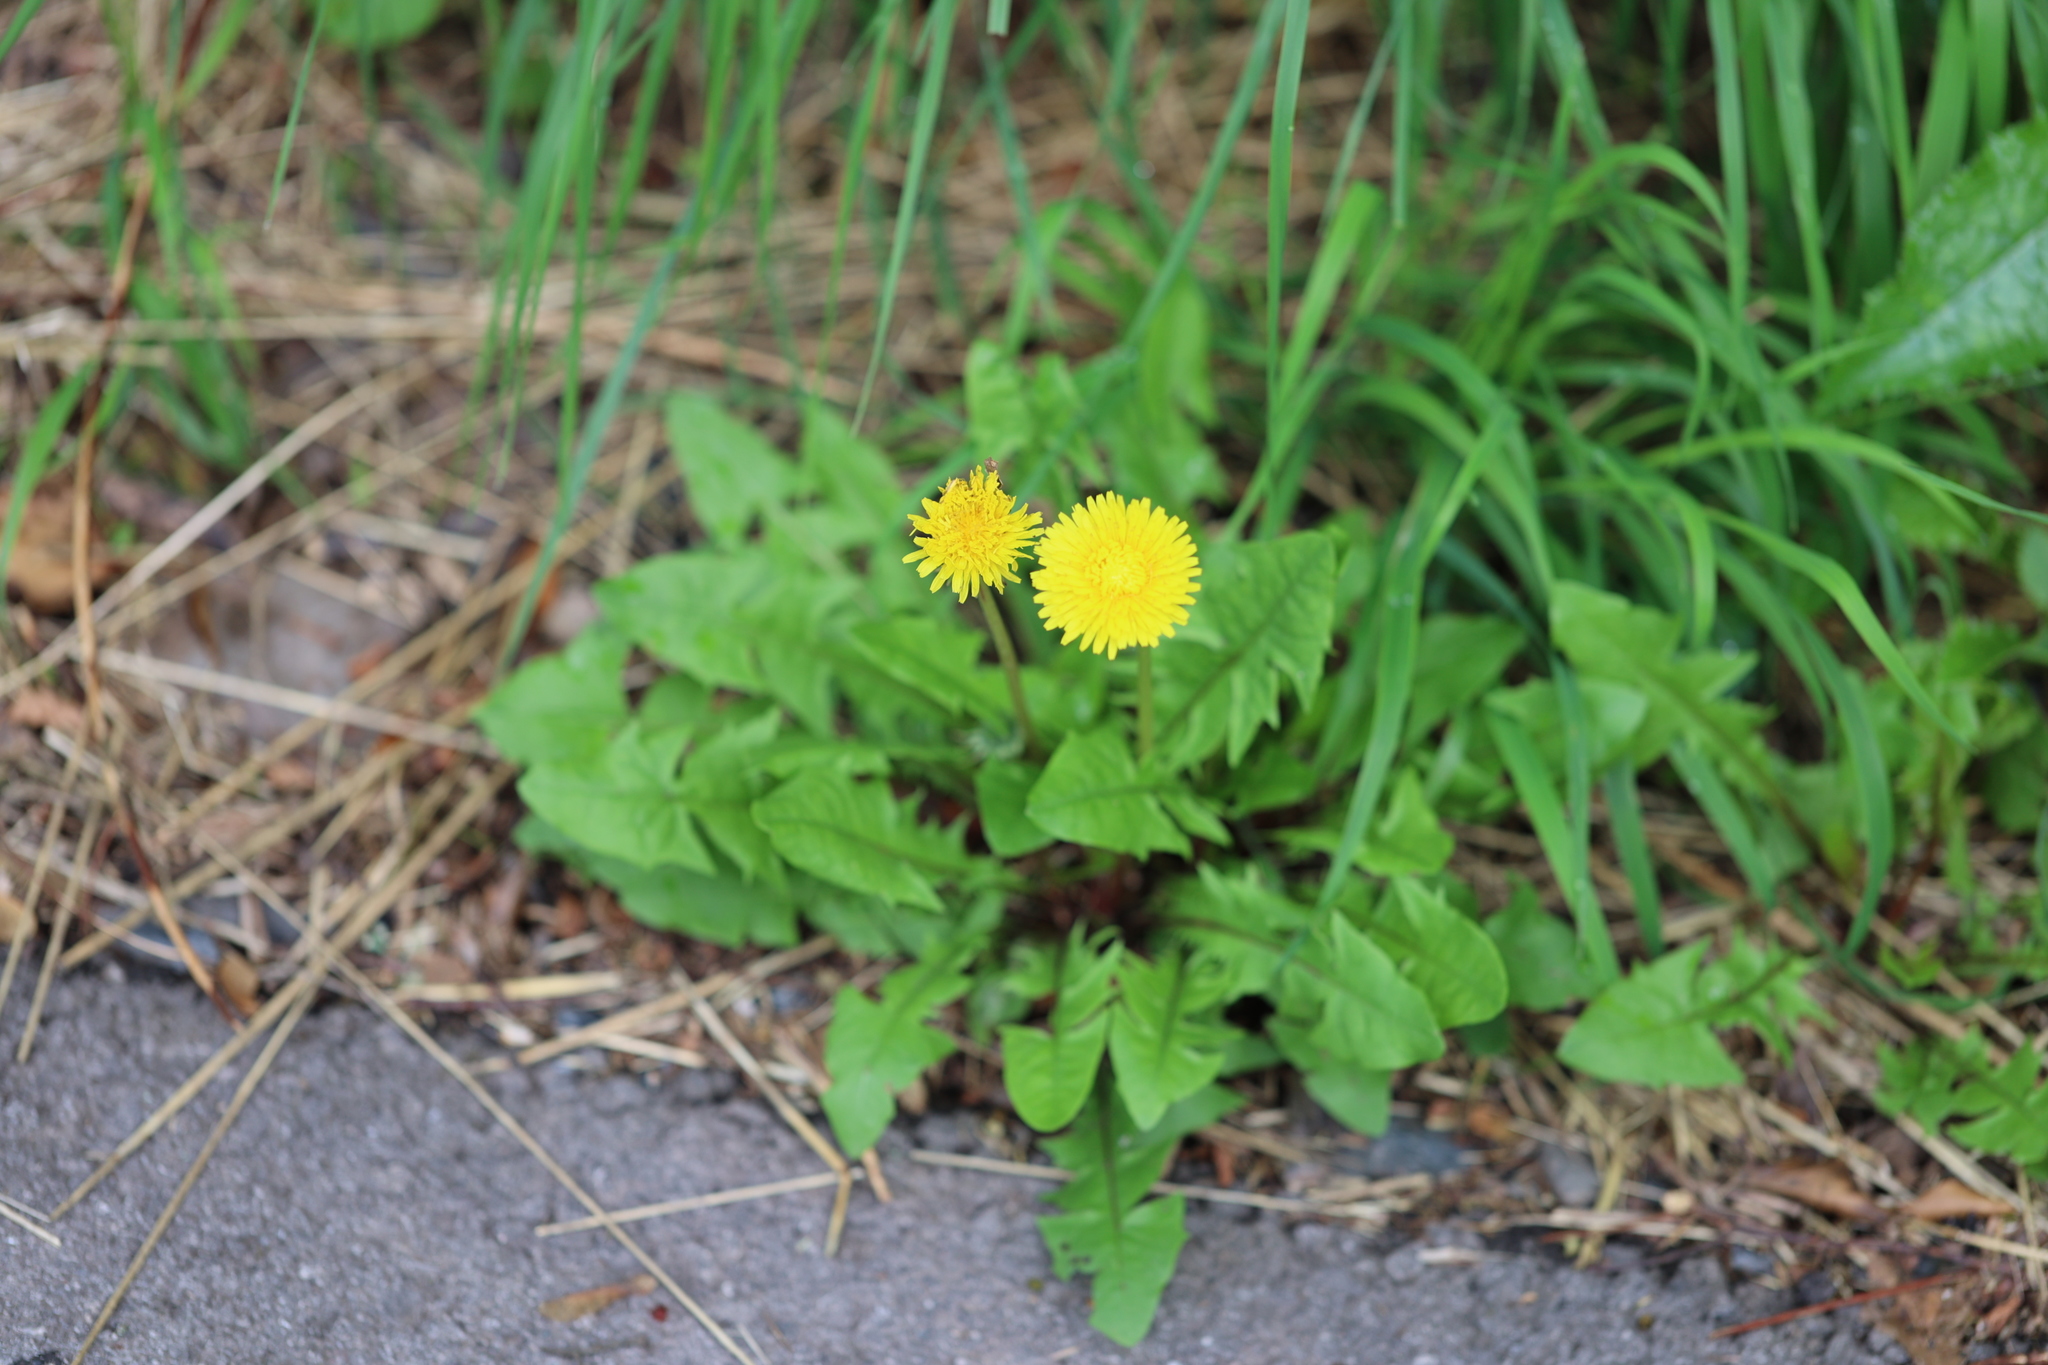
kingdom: Plantae
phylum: Tracheophyta
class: Magnoliopsida
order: Asterales
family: Asteraceae
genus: Taraxacum
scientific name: Taraxacum officinale
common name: Common dandelion
